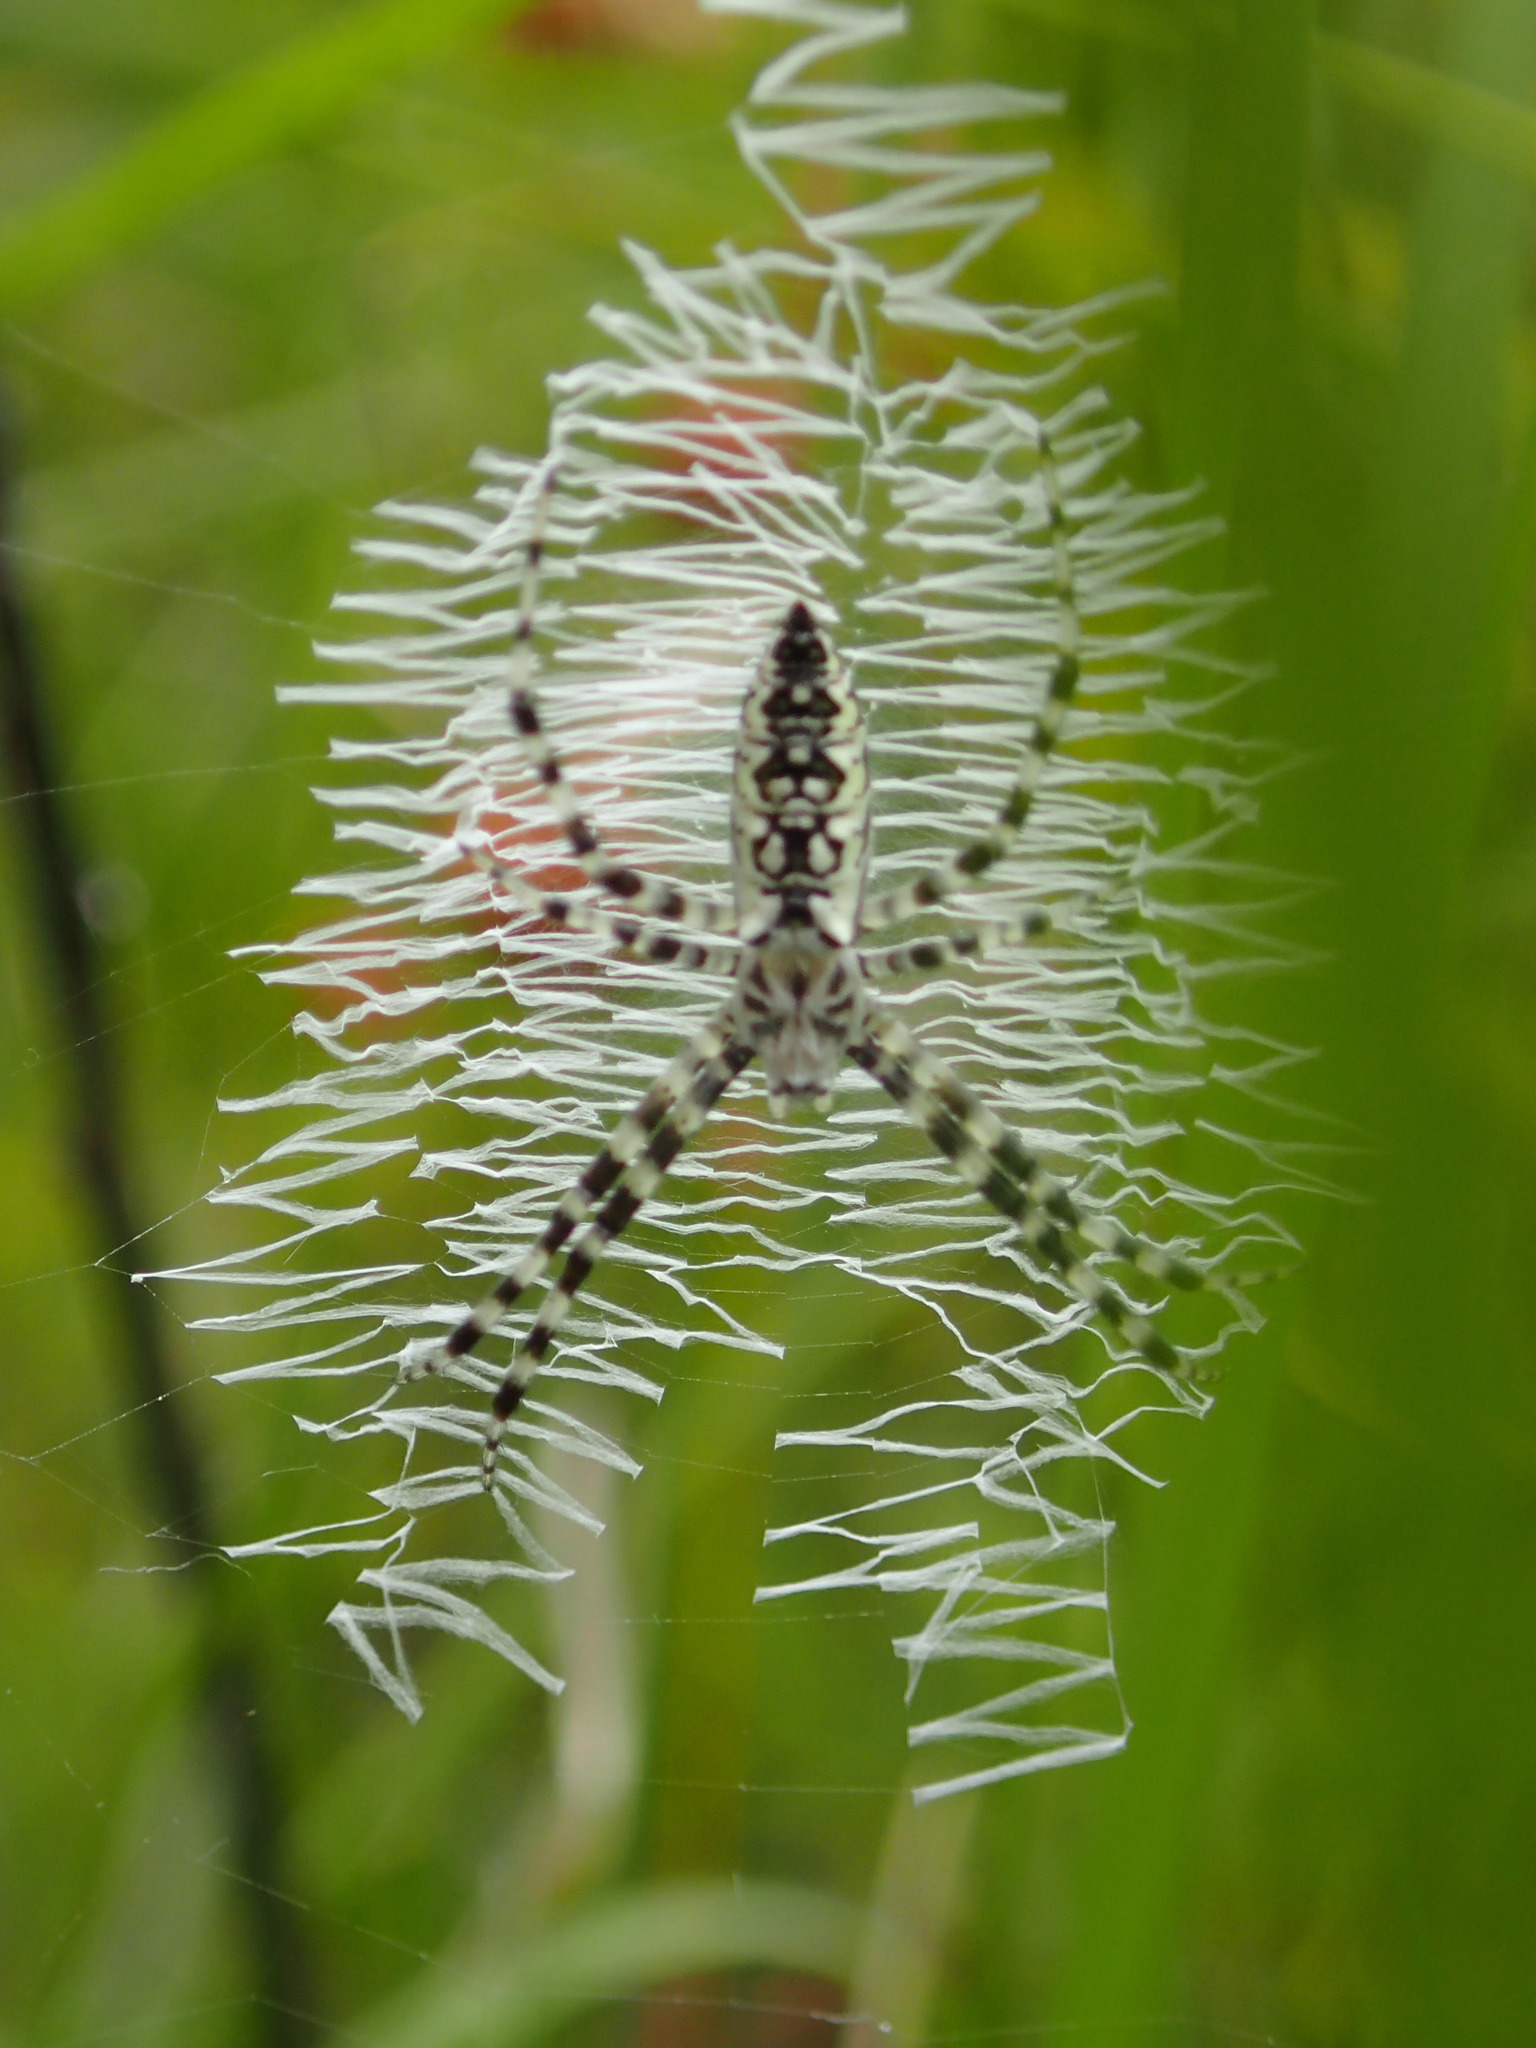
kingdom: Animalia
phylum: Arthropoda
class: Arachnida
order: Araneae
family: Araneidae
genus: Argiope
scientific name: Argiope aurantia
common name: Orb weavers
